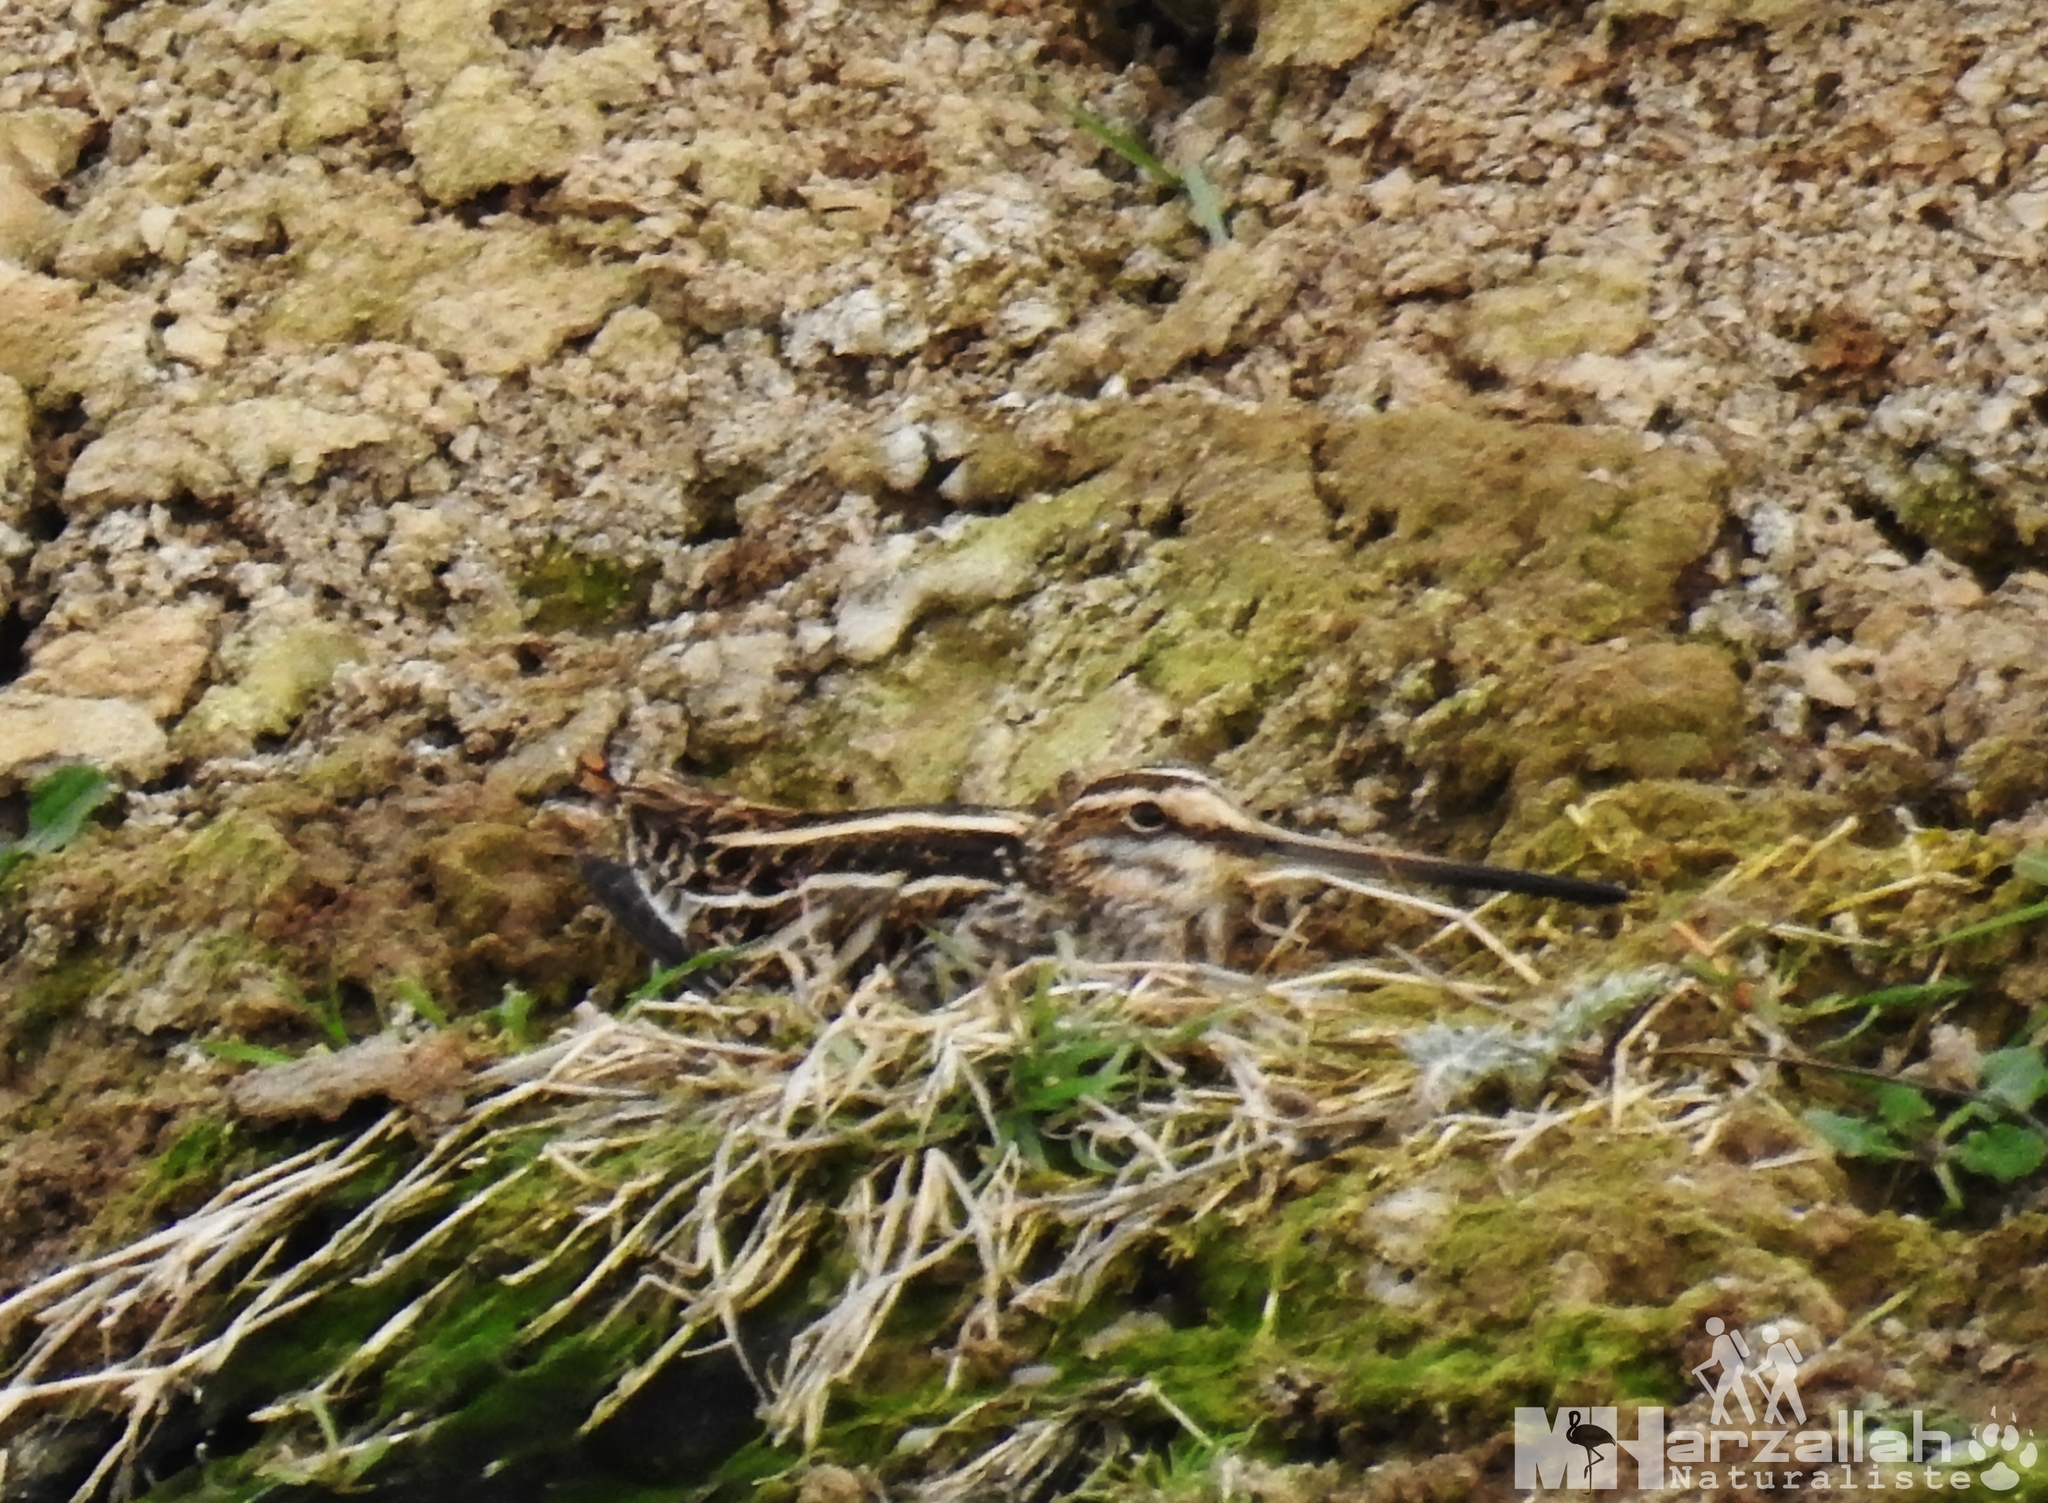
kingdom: Animalia
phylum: Chordata
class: Aves
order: Charadriiformes
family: Scolopacidae
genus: Gallinago
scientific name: Gallinago gallinago
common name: Common snipe
